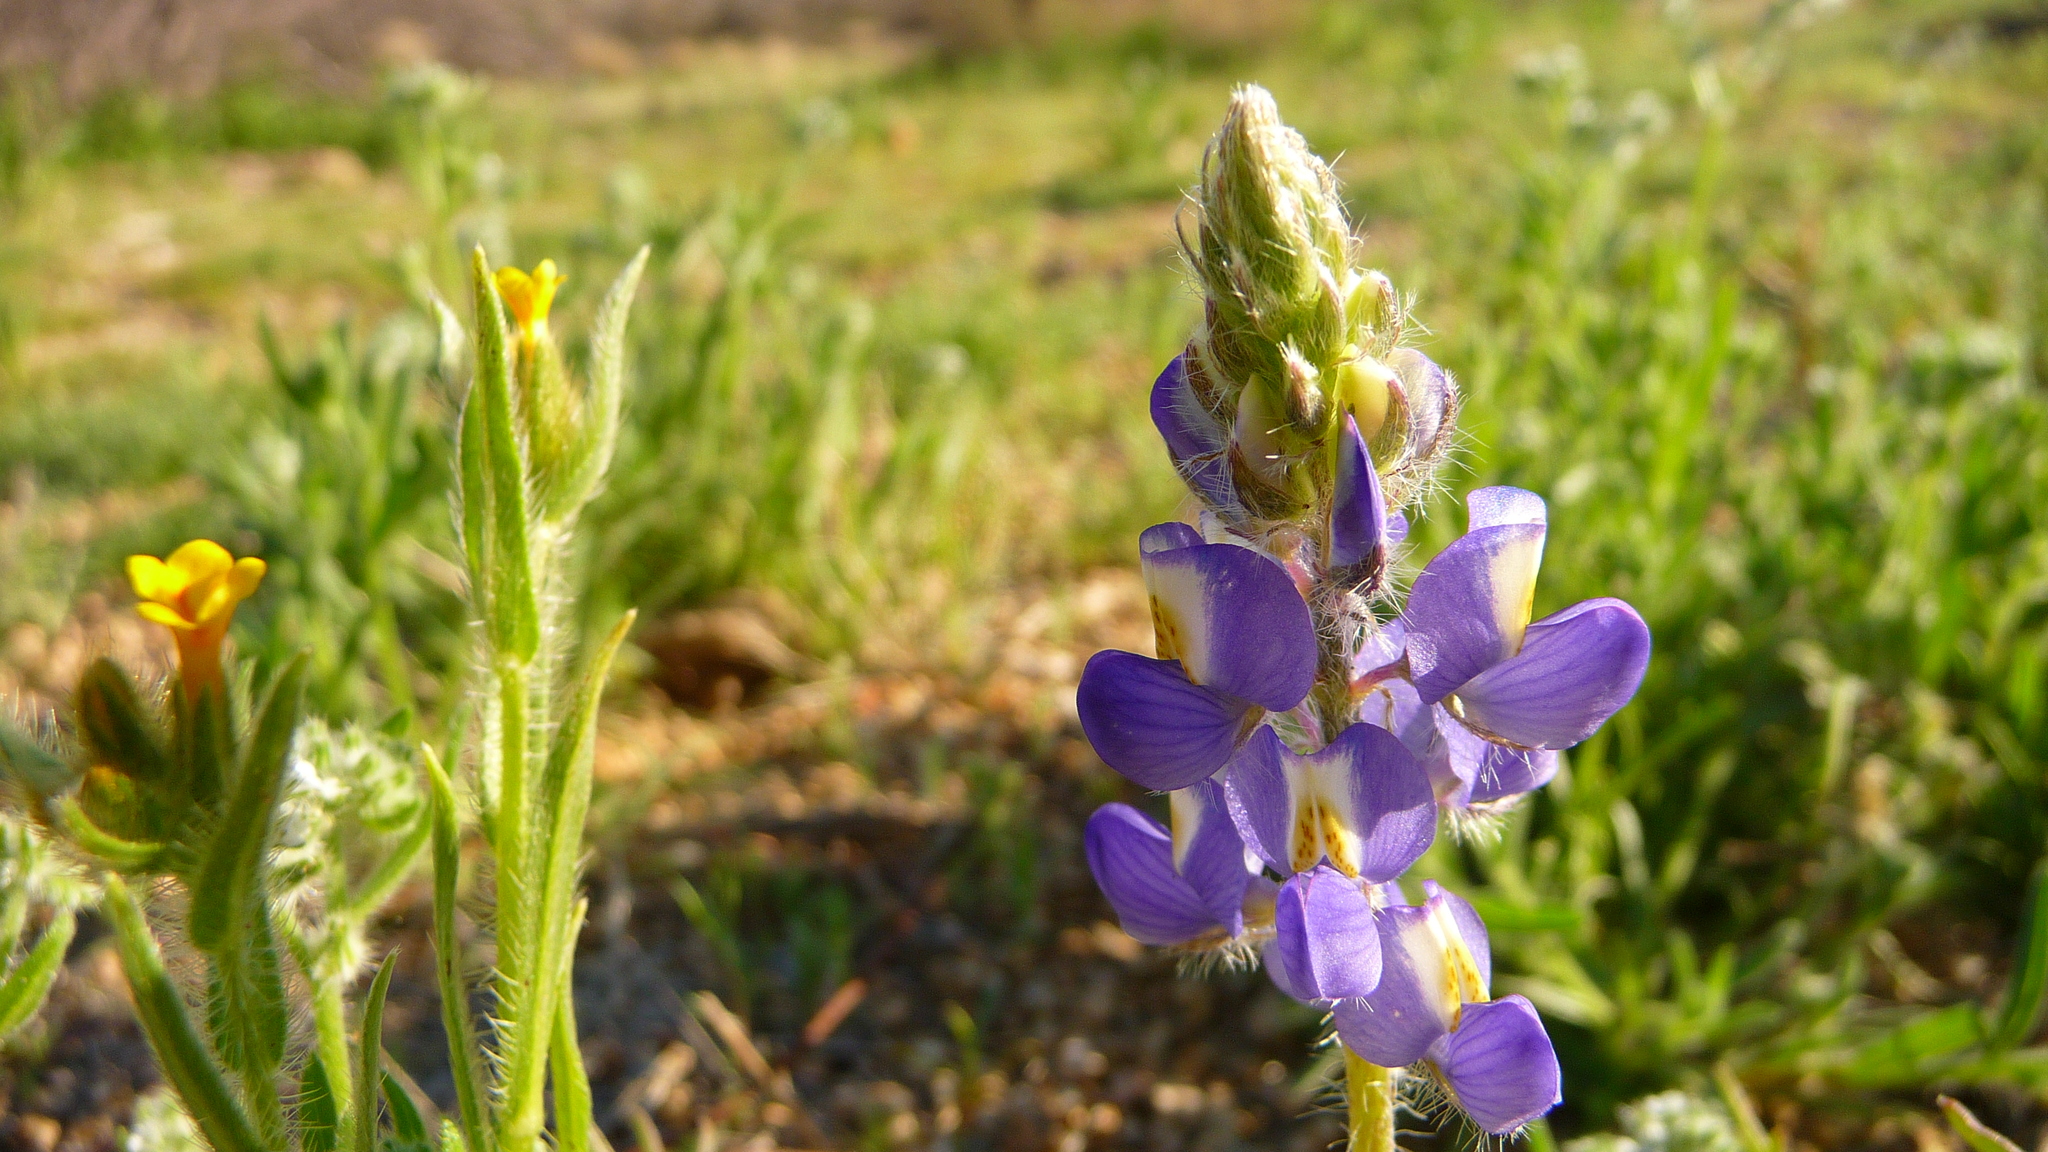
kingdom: Plantae
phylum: Tracheophyta
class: Magnoliopsida
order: Fabales
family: Fabaceae
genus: Lupinus
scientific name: Lupinus sparsiflorus
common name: Coulter's lupine
